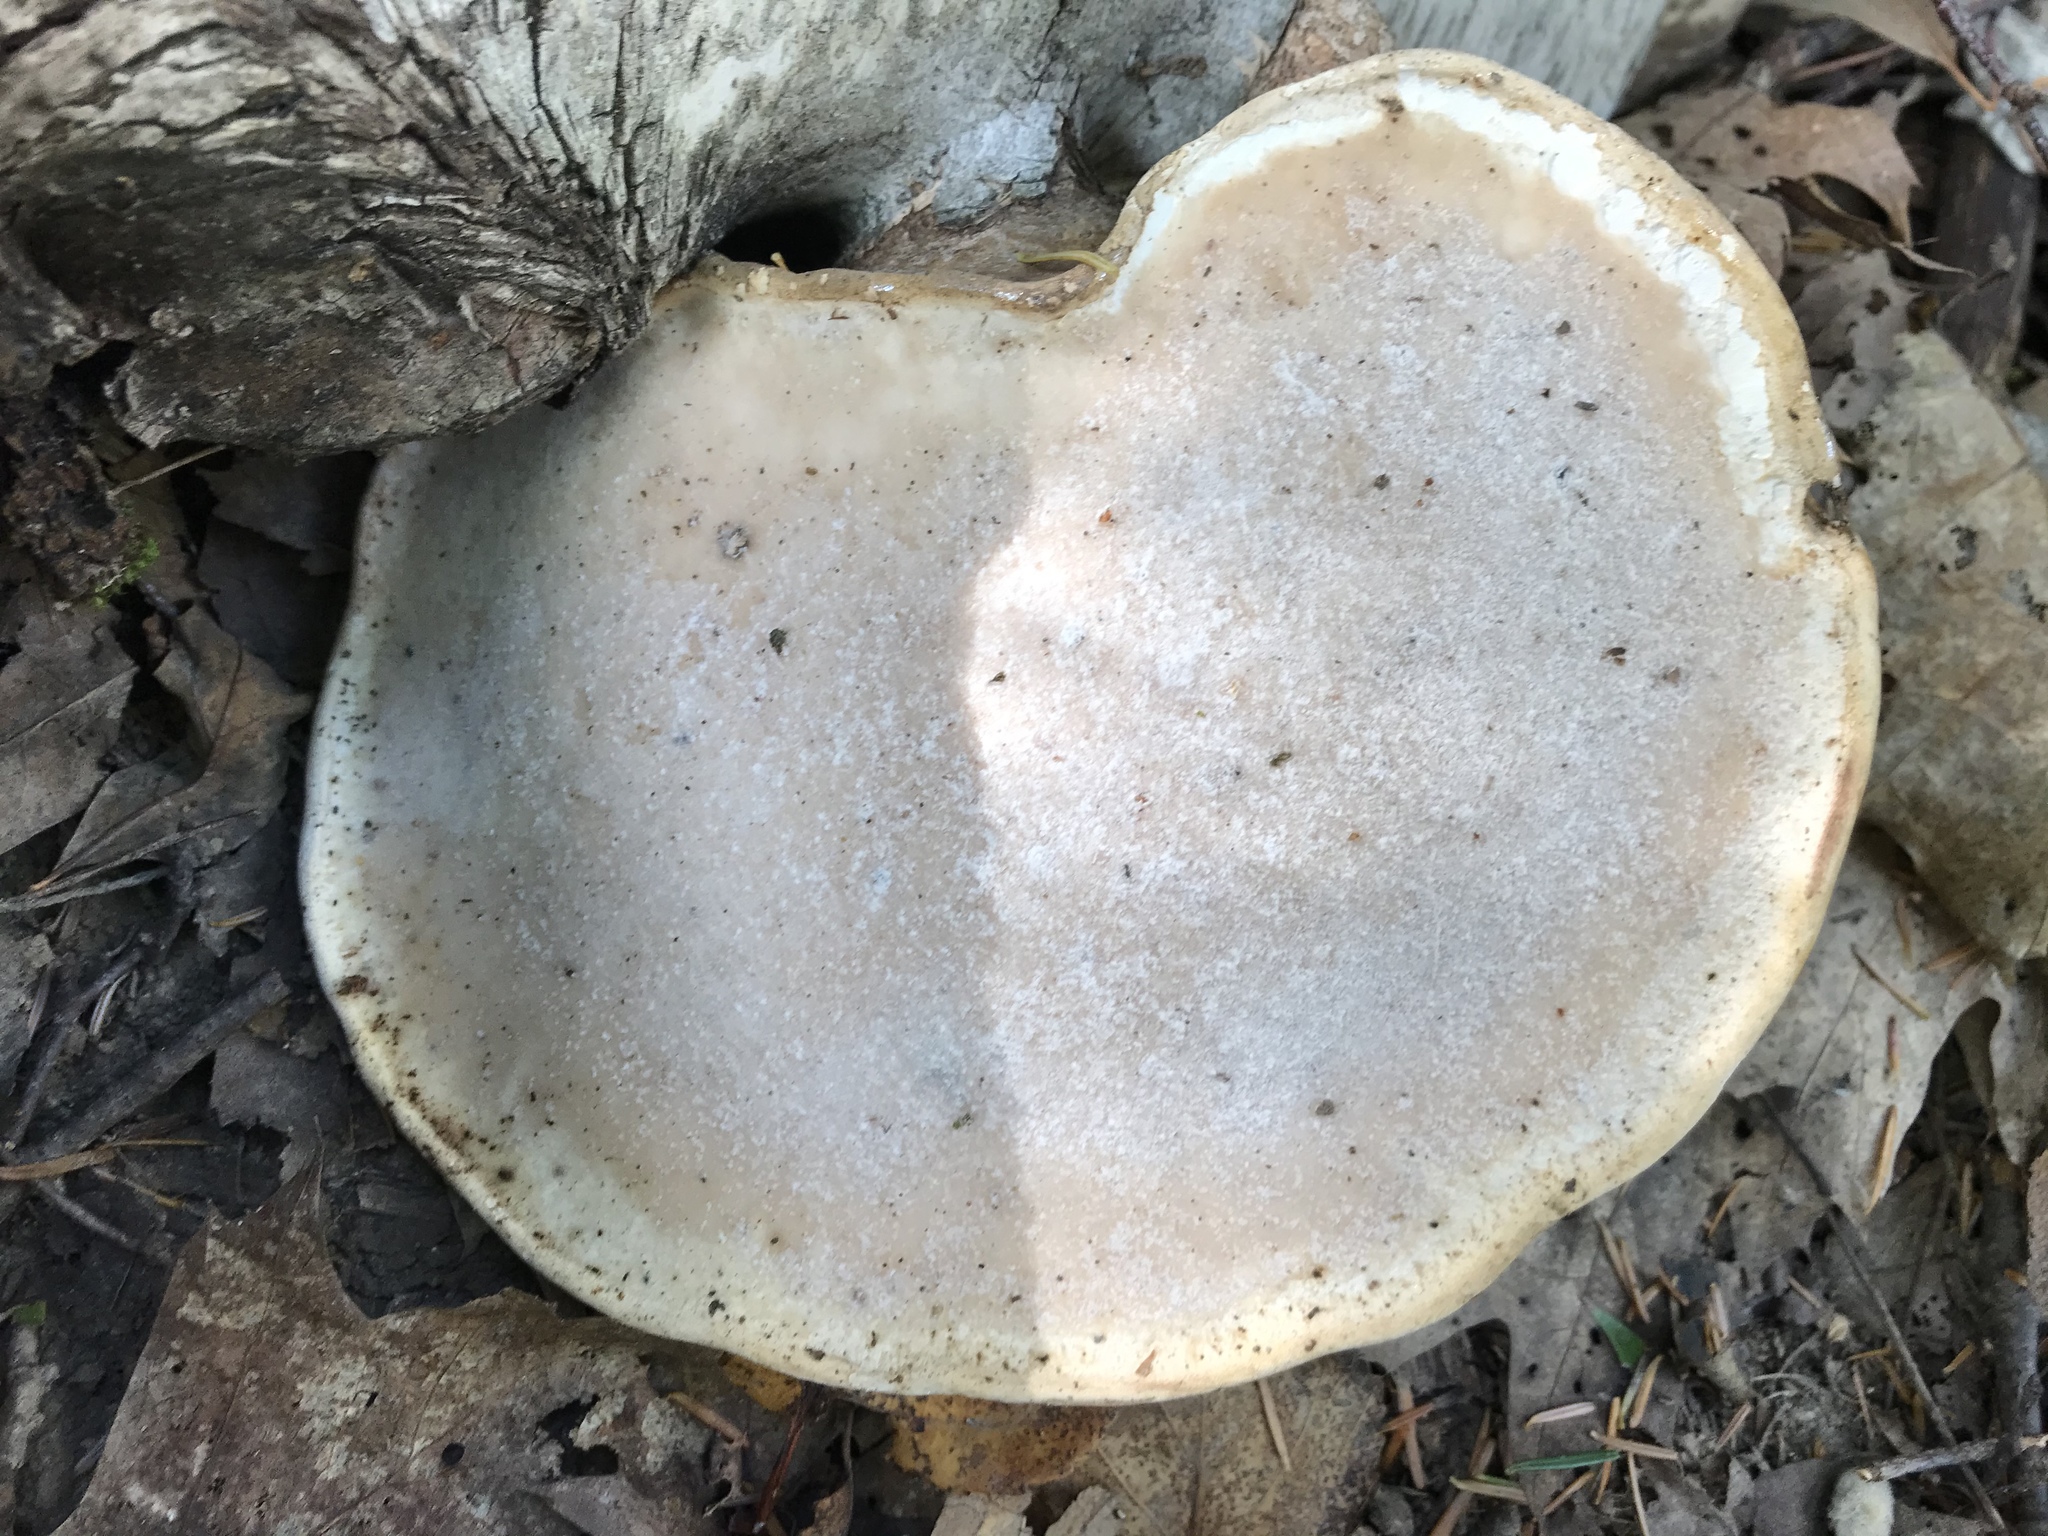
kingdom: Fungi
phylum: Basidiomycota
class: Agaricomycetes
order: Polyporales
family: Fomitopsidaceae
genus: Fomitopsis
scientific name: Fomitopsis betulina
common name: Birch polypore
